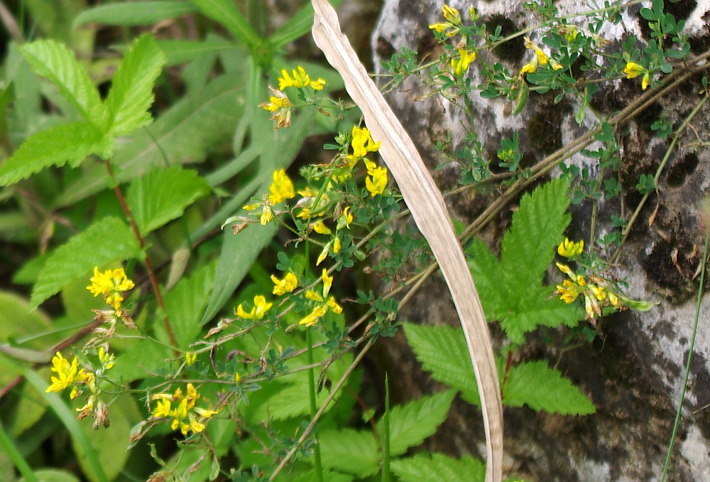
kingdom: Plantae
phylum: Tracheophyta
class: Magnoliopsida
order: Fabales
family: Fabaceae
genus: Medicago
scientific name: Medicago falcata
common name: Sickle medick
